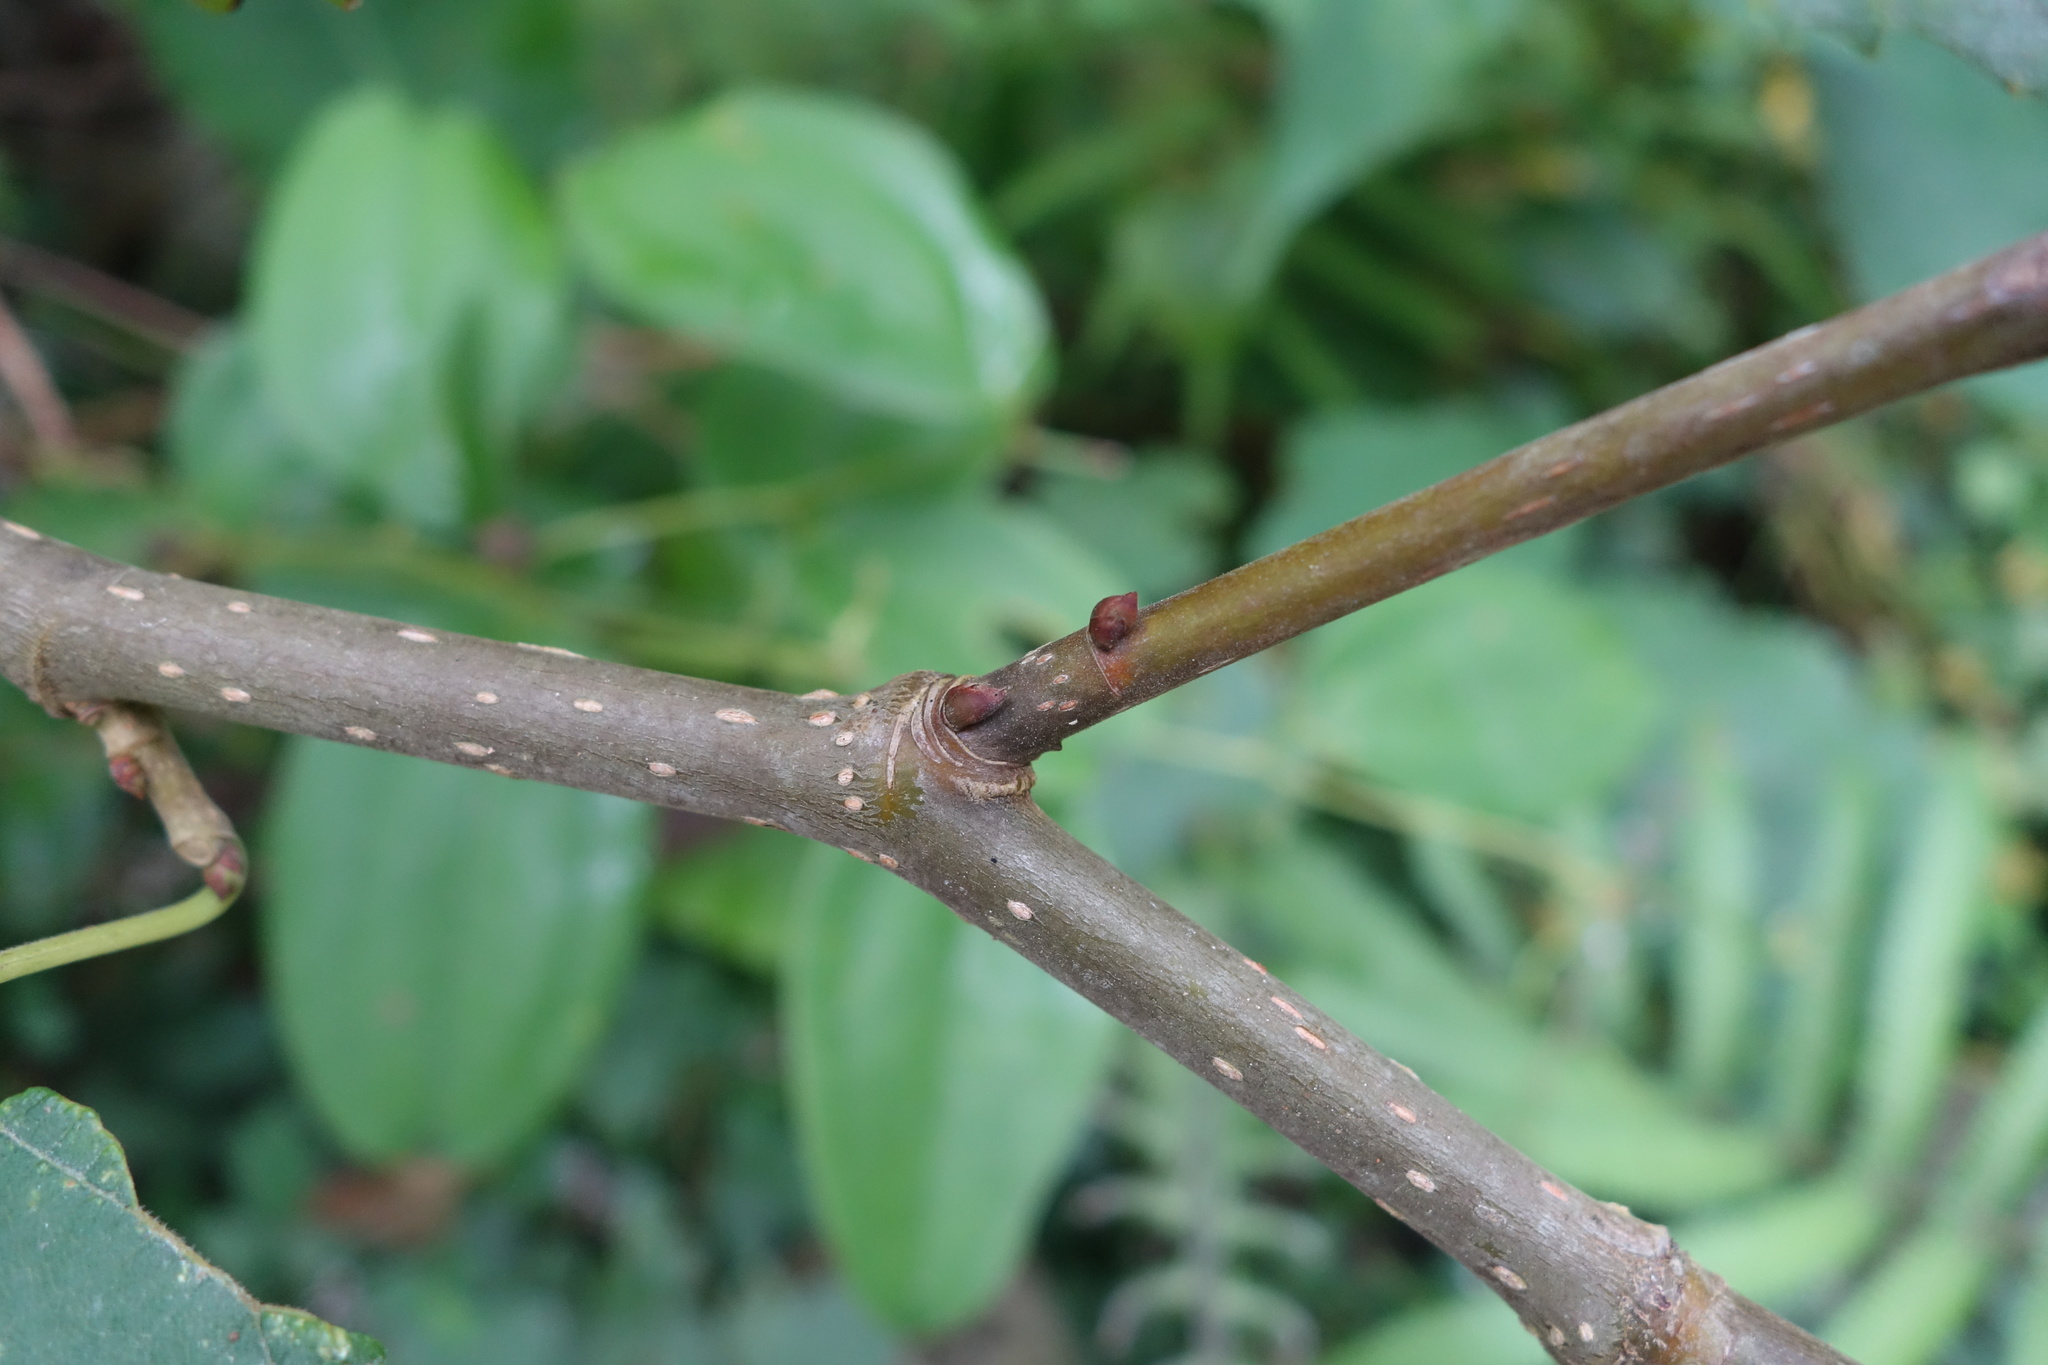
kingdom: Plantae
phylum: Tracheophyta
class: Magnoliopsida
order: Rosales
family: Moraceae
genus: Morus
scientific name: Morus indica
